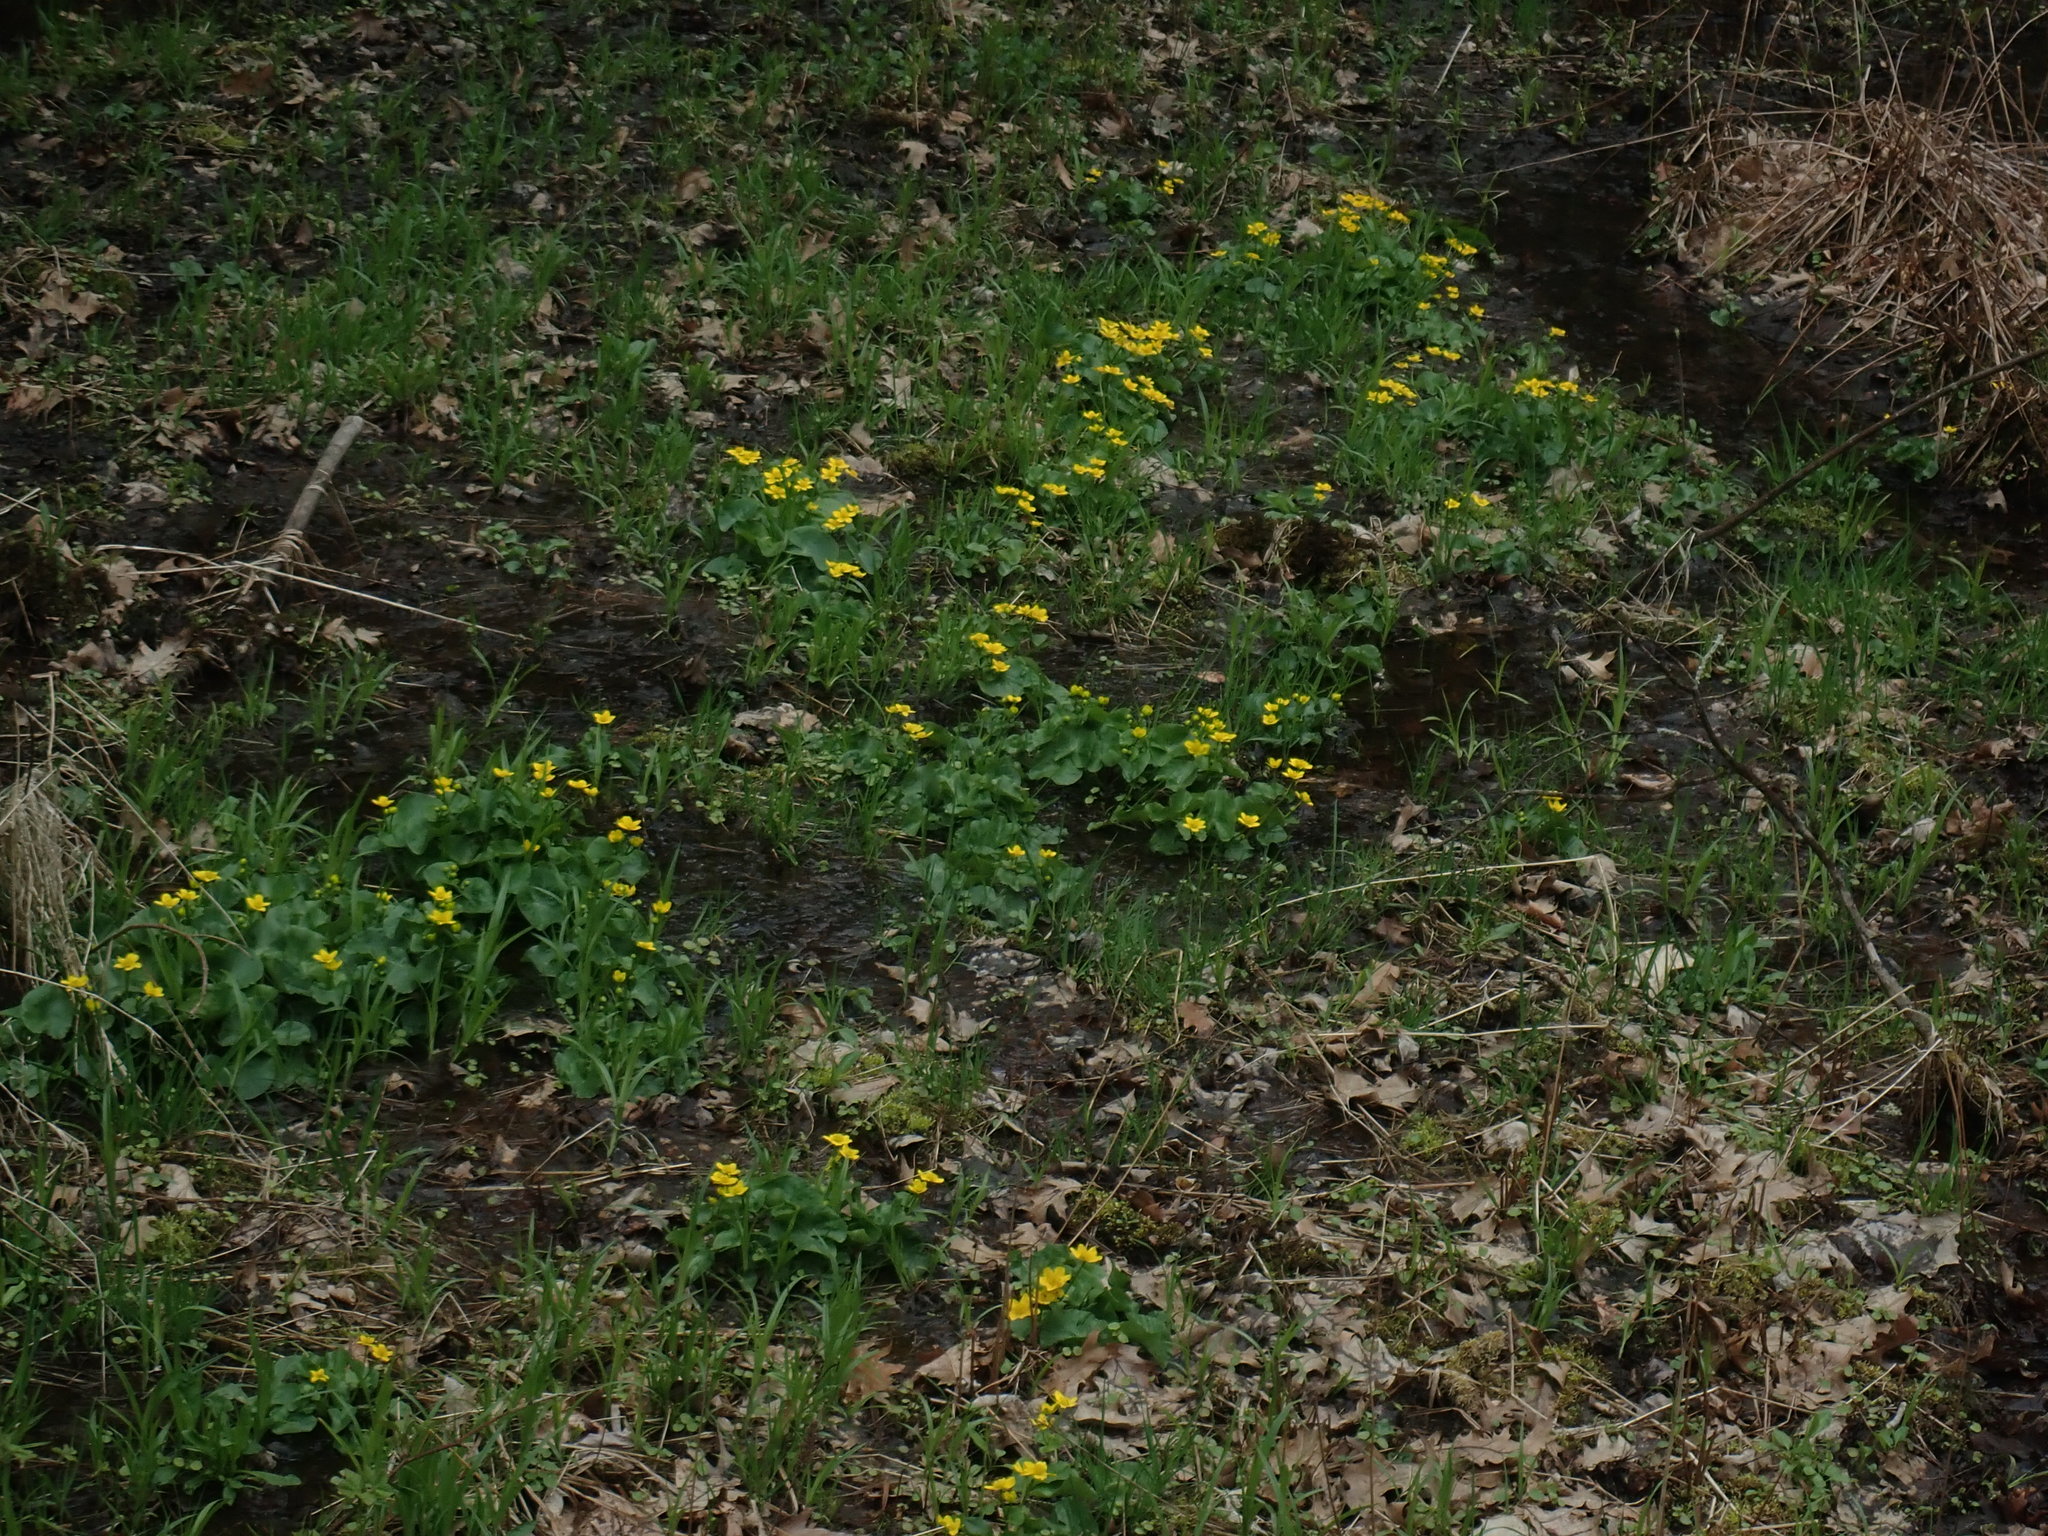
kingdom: Plantae
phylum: Tracheophyta
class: Magnoliopsida
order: Ranunculales
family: Ranunculaceae
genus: Caltha
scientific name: Caltha palustris
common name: Marsh marigold
